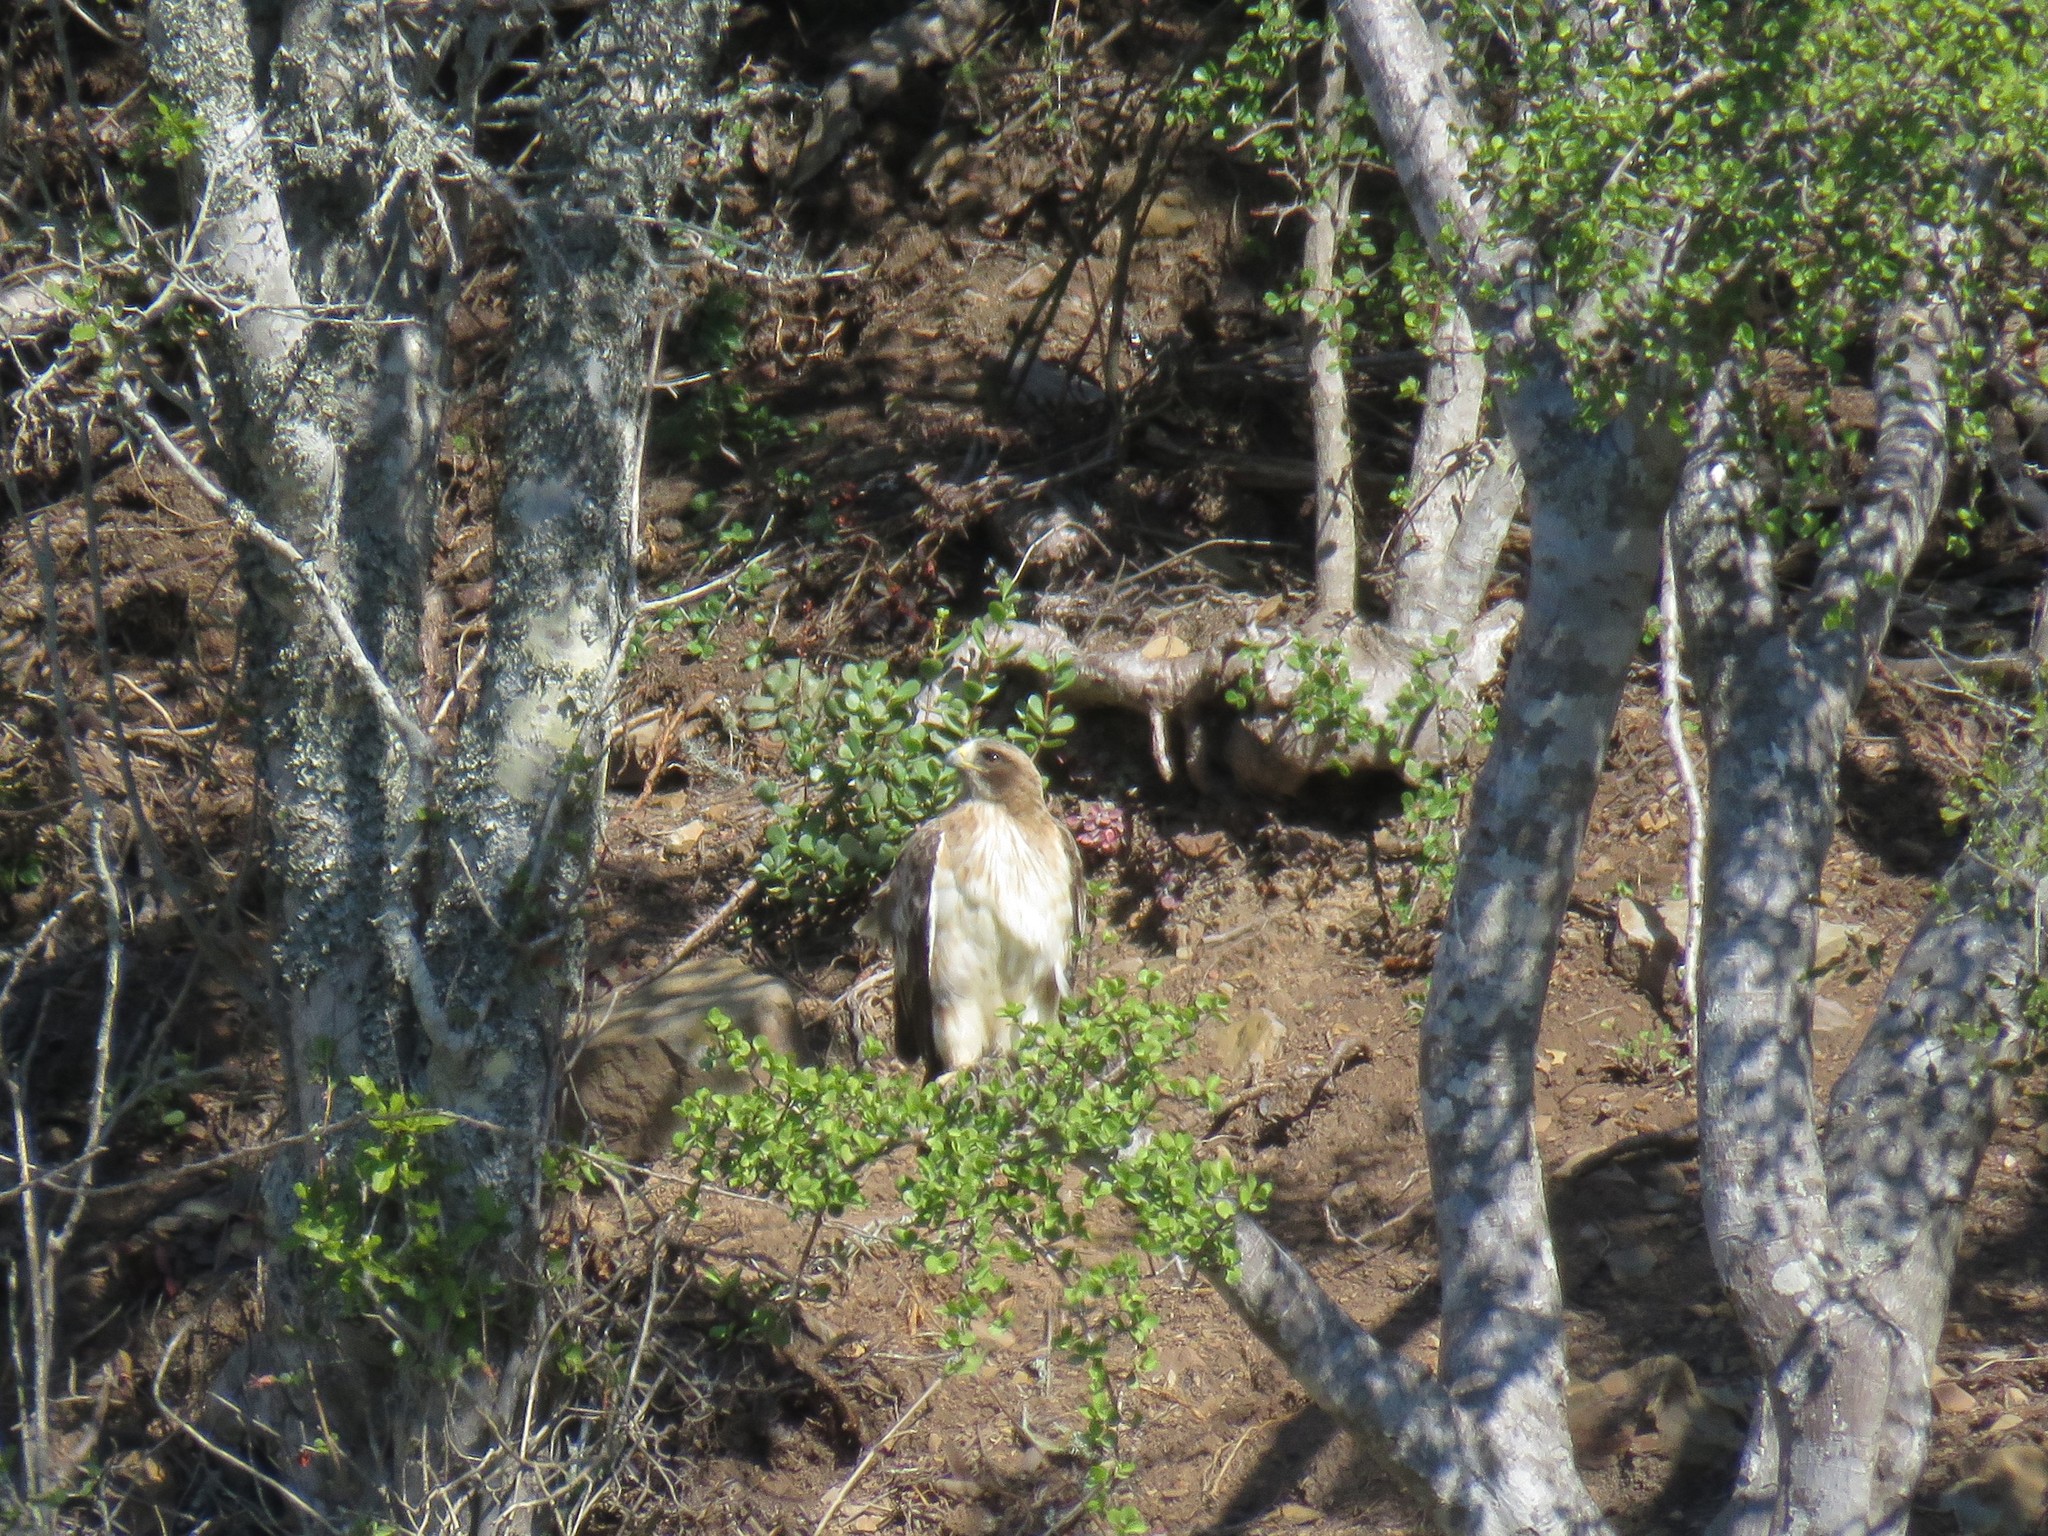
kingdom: Animalia
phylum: Chordata
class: Aves
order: Accipitriformes
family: Accipitridae
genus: Hieraaetus
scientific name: Hieraaetus pennatus
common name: Booted eagle
